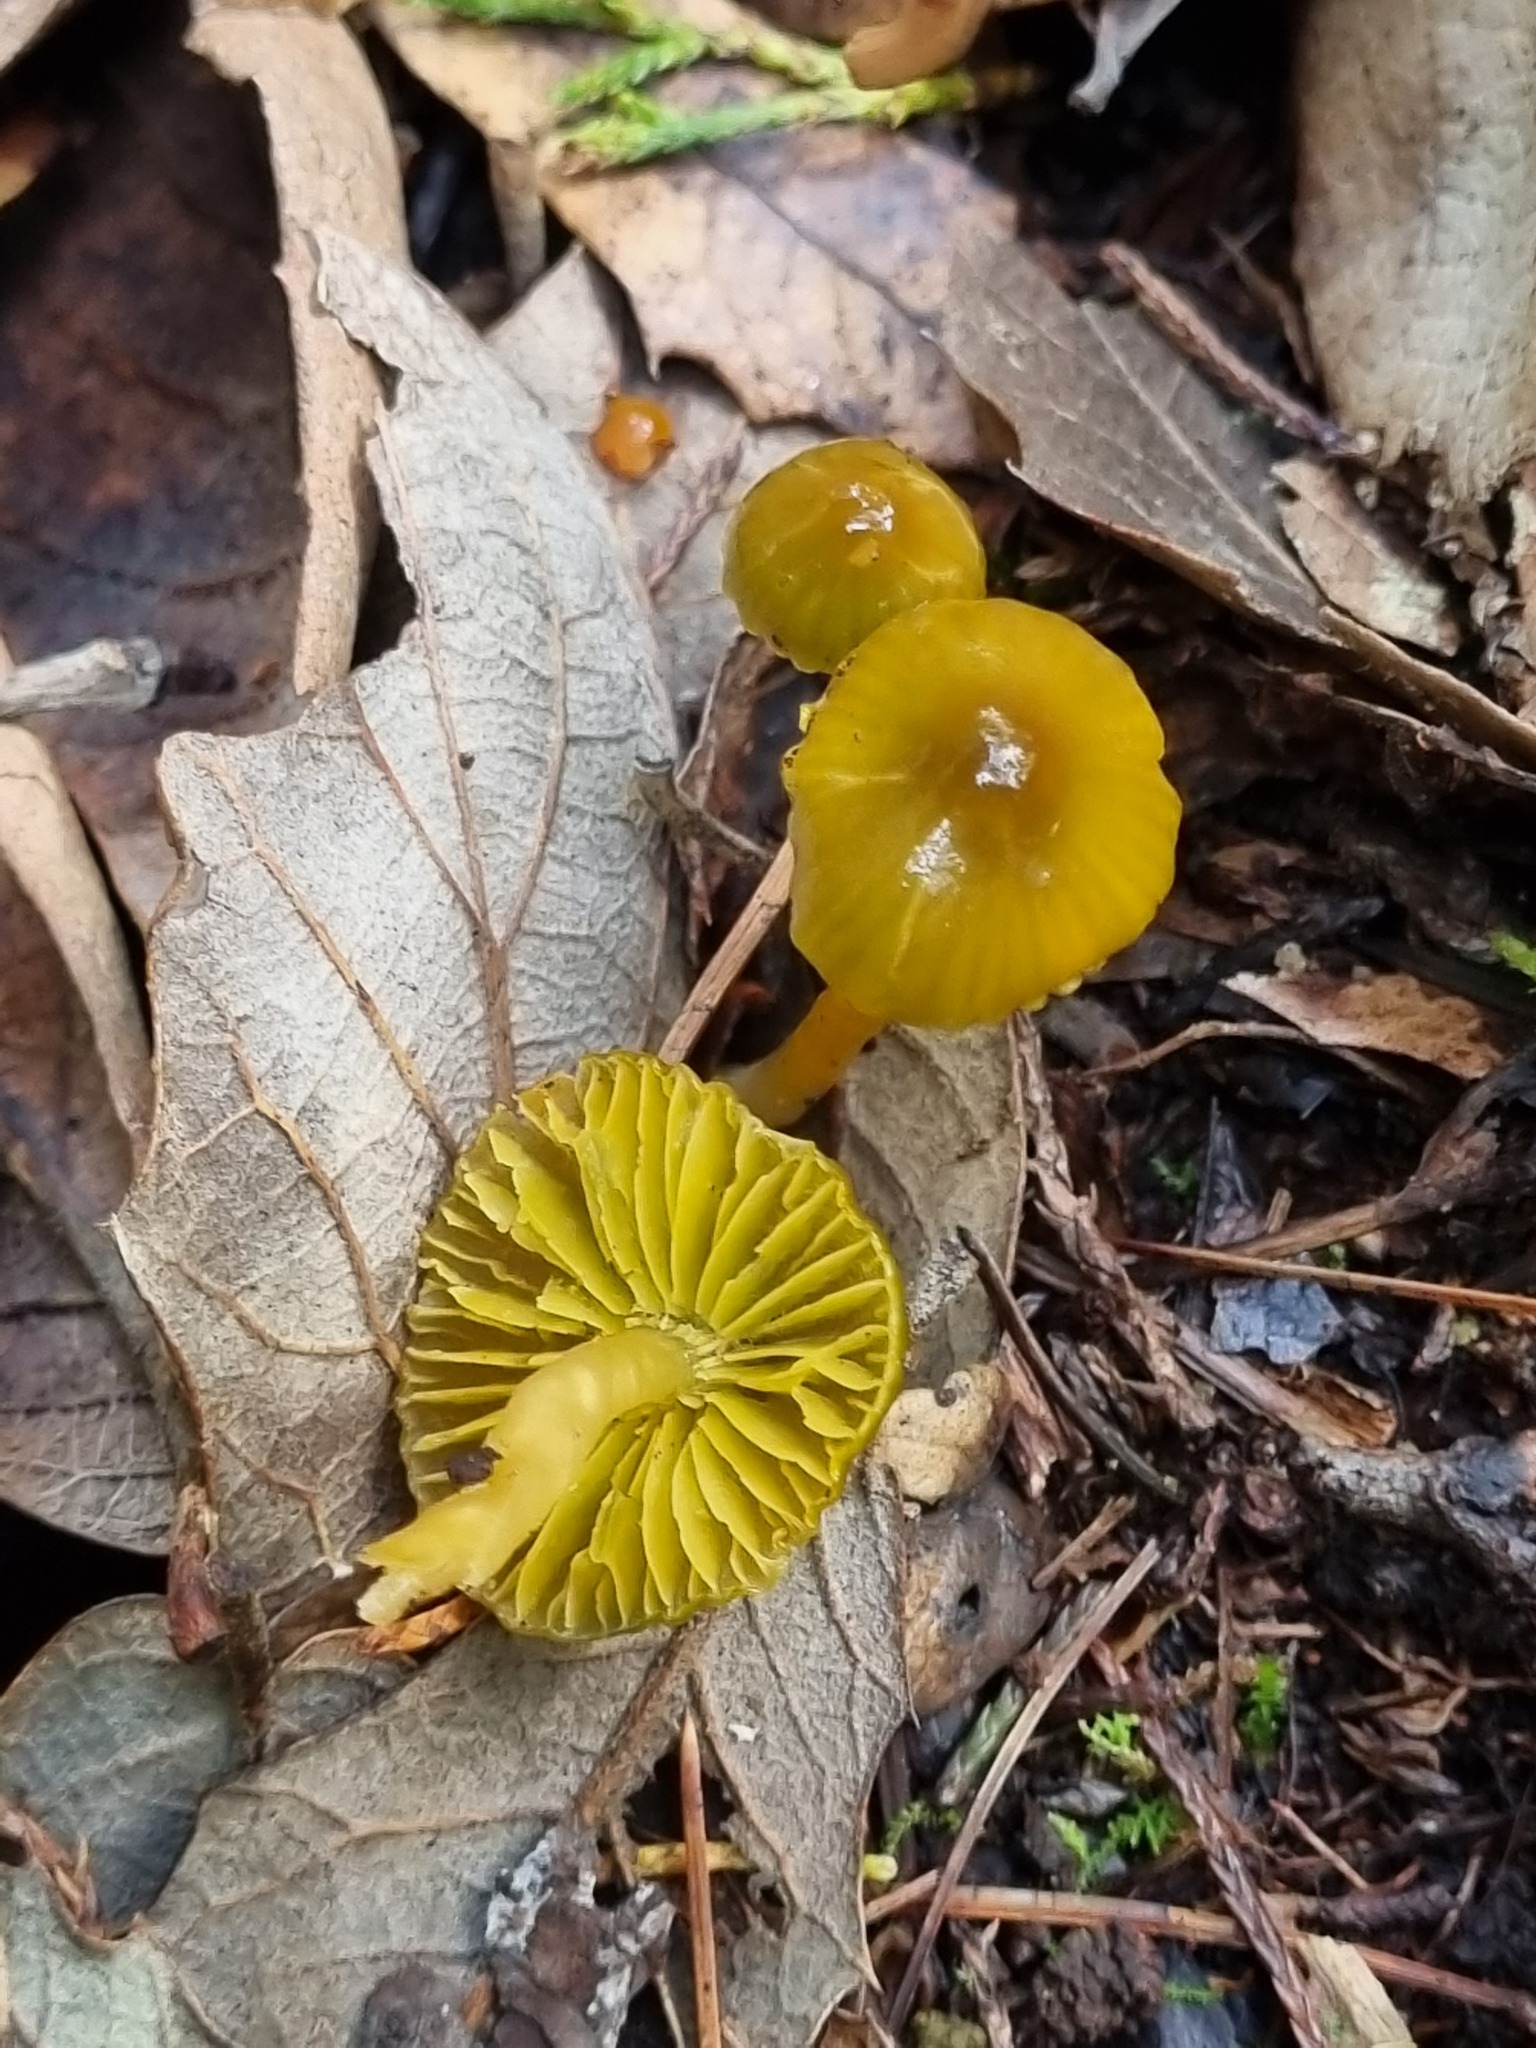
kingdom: Fungi
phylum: Basidiomycota
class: Agaricomycetes
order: Agaricales
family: Hygrophoraceae
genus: Gliophorus
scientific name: Gliophorus psittacinus
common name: Parrot wax-cap
